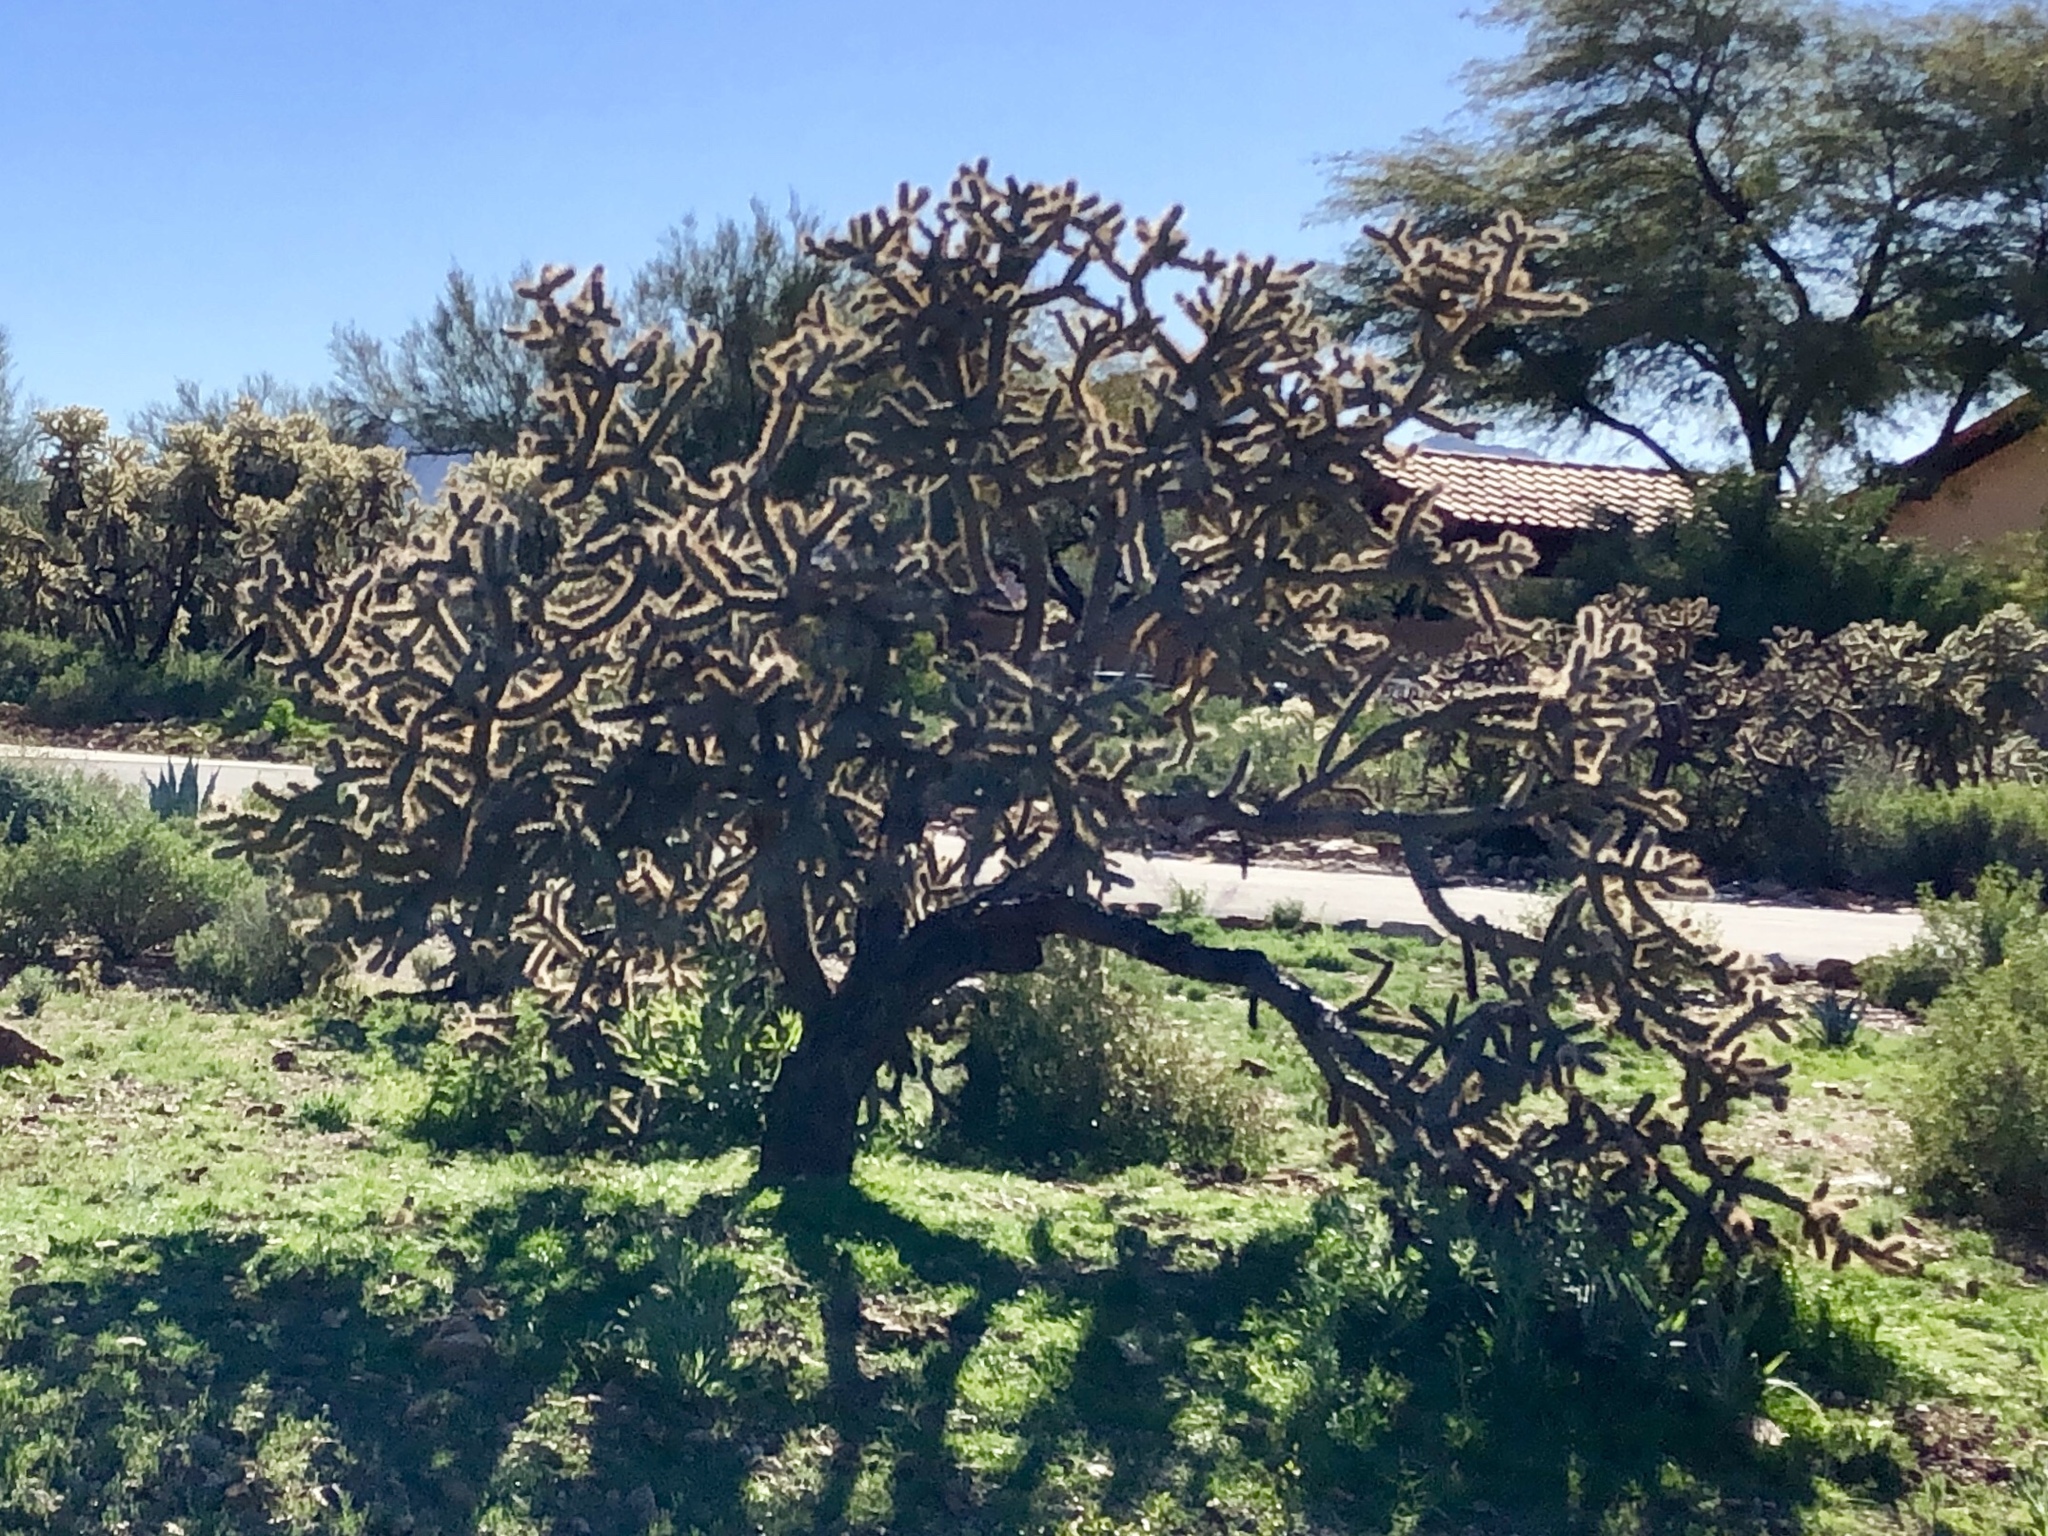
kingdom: Plantae
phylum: Tracheophyta
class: Magnoliopsida
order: Caryophyllales
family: Cactaceae
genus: Cylindropuntia
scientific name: Cylindropuntia thurberi
